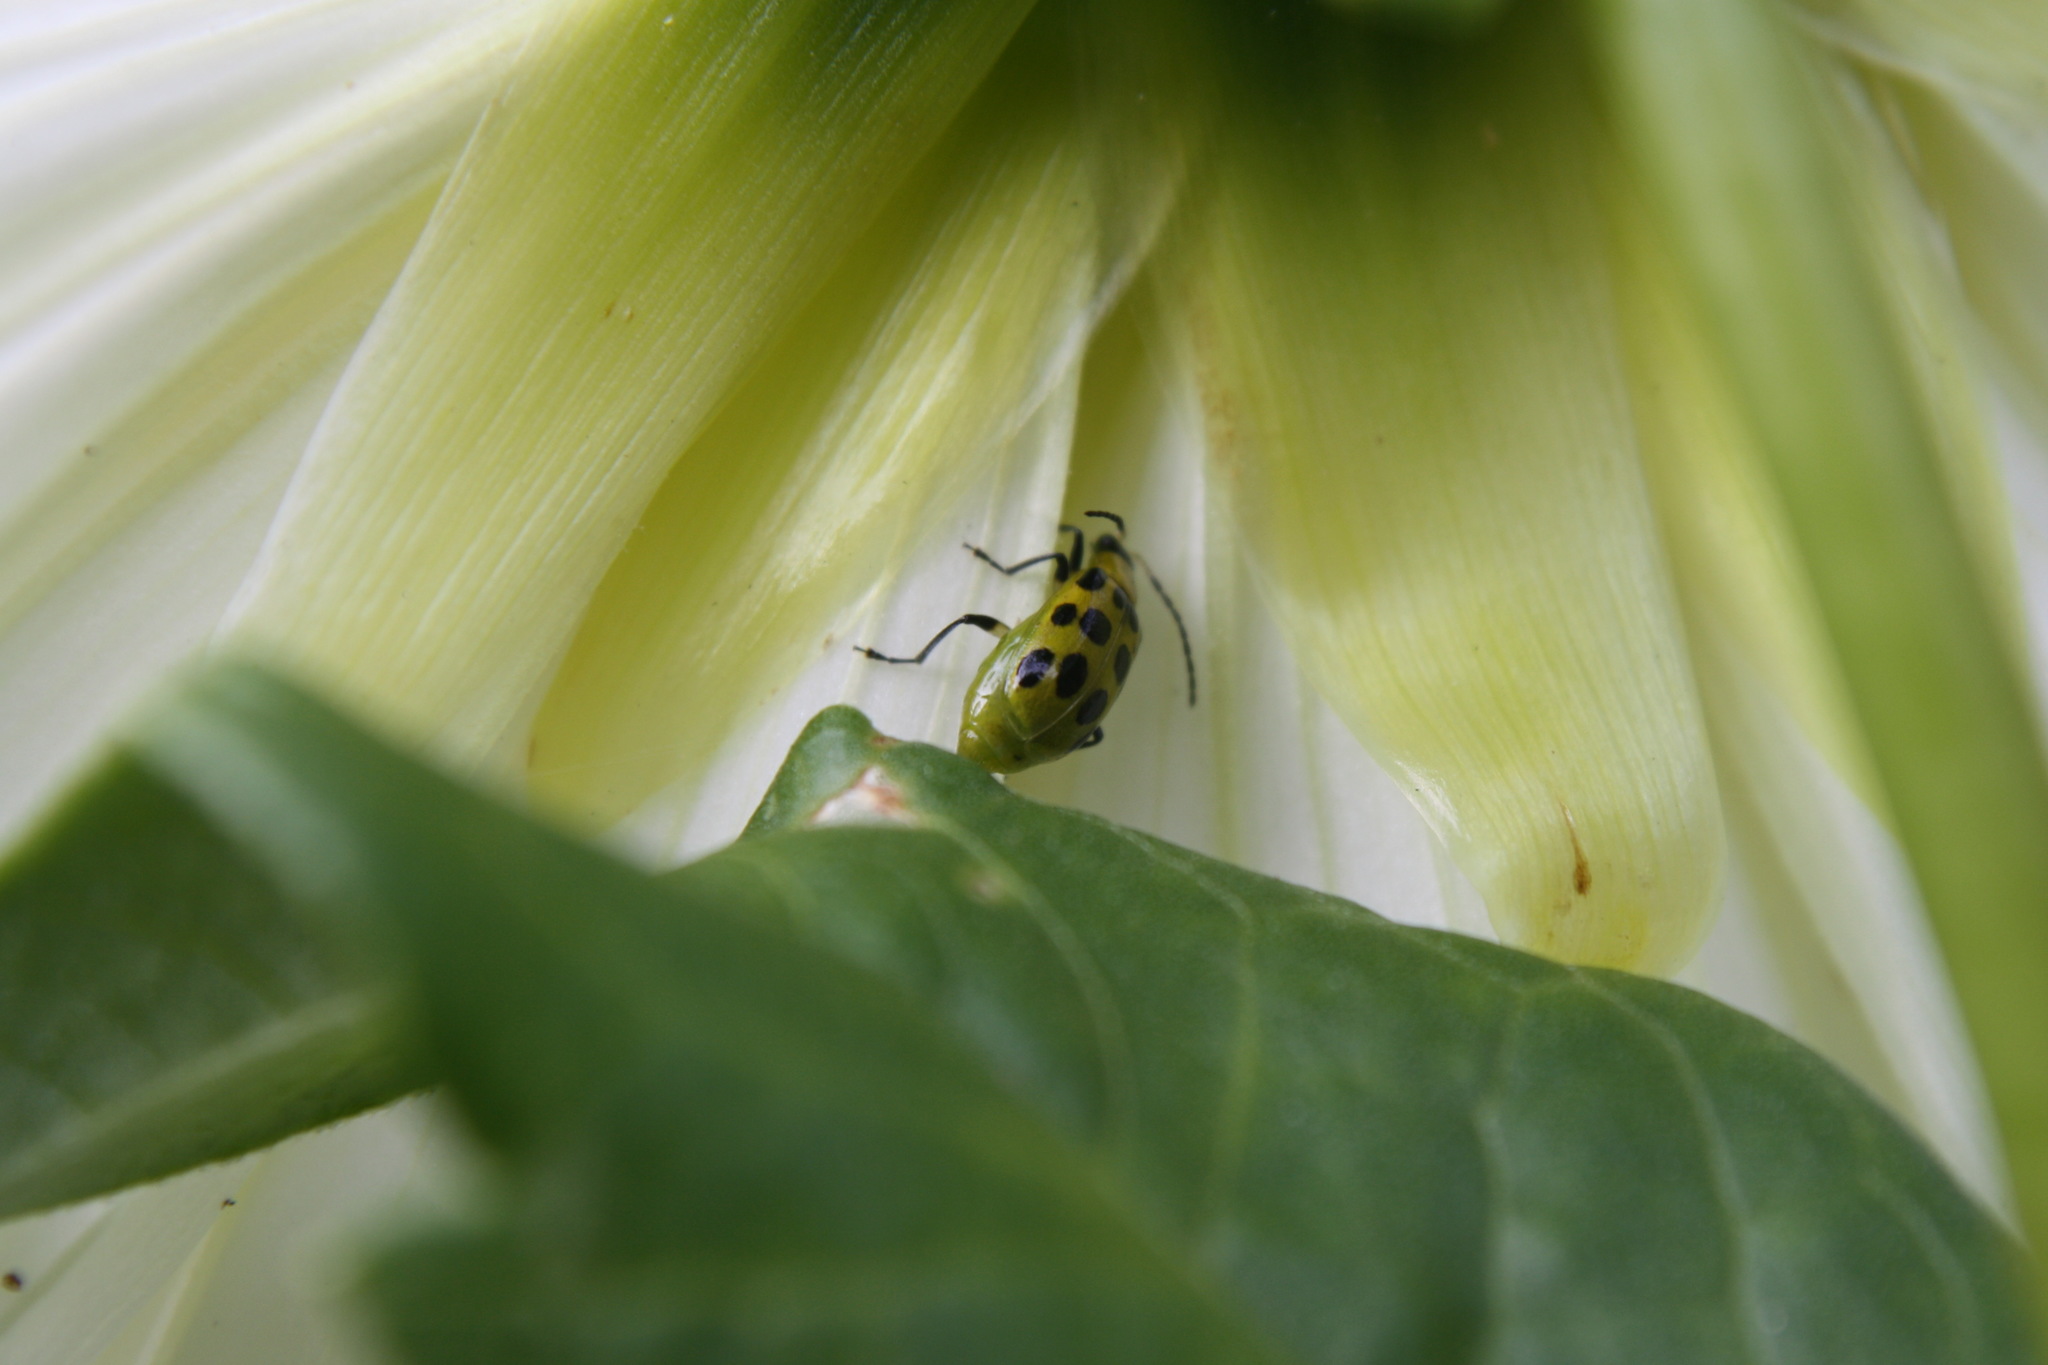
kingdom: Animalia
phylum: Arthropoda
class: Insecta
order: Coleoptera
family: Chrysomelidae
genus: Diabrotica
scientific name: Diabrotica undecimpunctata
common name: Spotted cucumber beetle
